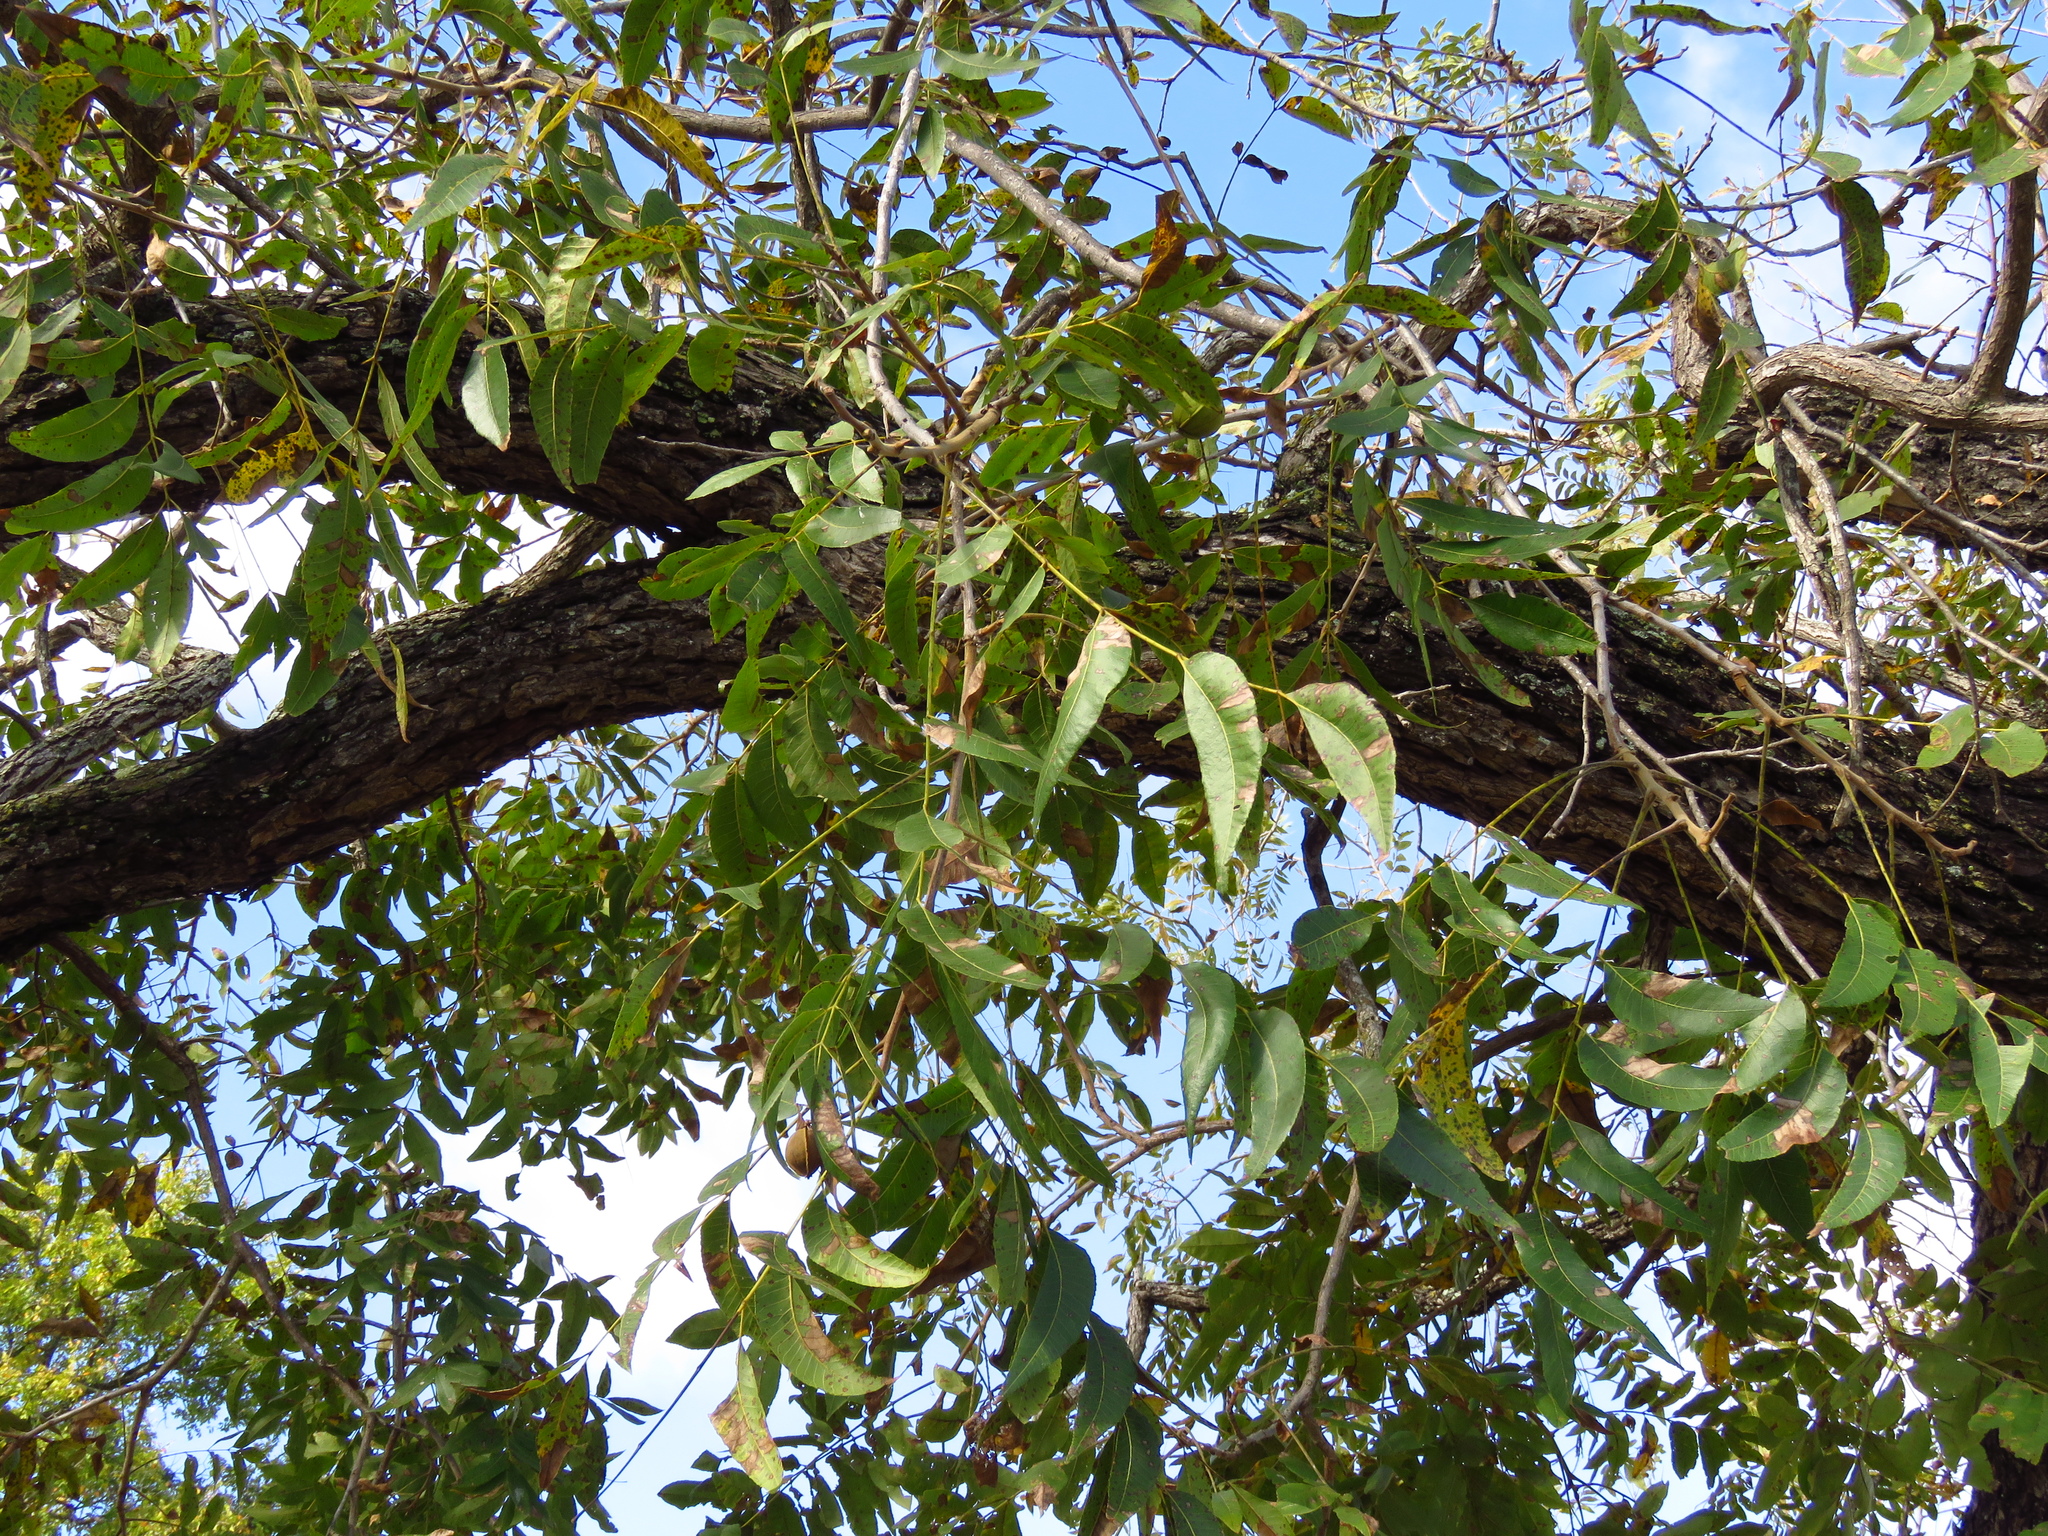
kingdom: Plantae
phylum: Tracheophyta
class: Magnoliopsida
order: Fagales
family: Juglandaceae
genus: Carya
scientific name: Carya illinoinensis
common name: Pecan
